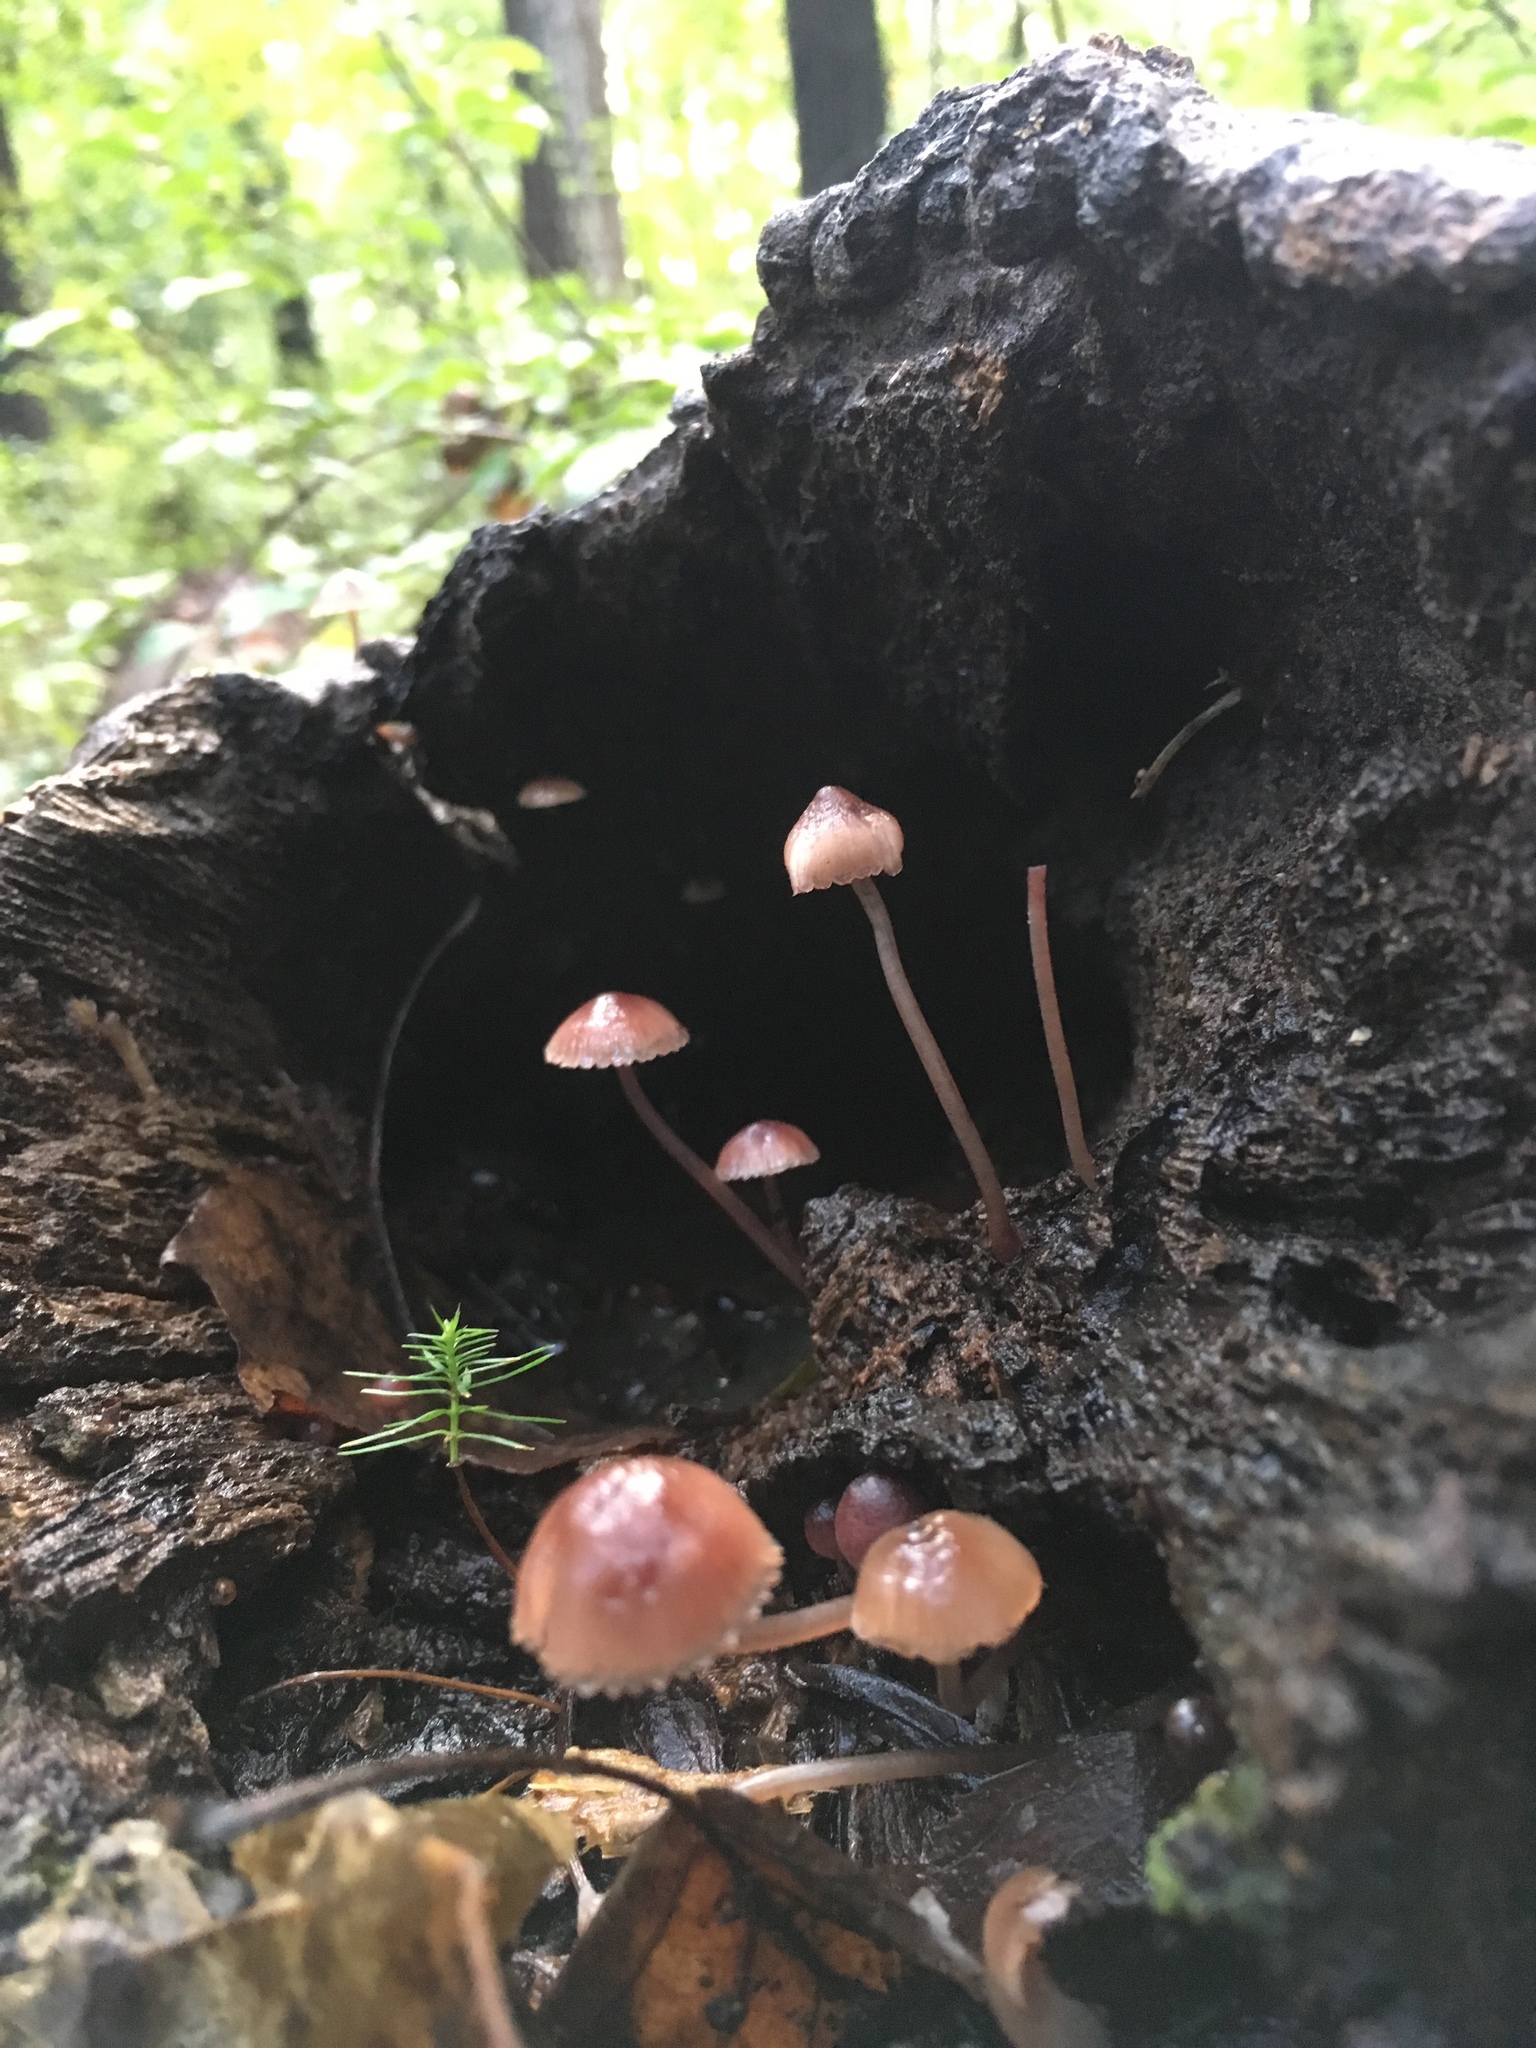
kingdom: Fungi
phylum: Basidiomycota
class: Agaricomycetes
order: Agaricales
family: Mycenaceae
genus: Mycena
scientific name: Mycena haematopus
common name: Burgundydrop bonnet
